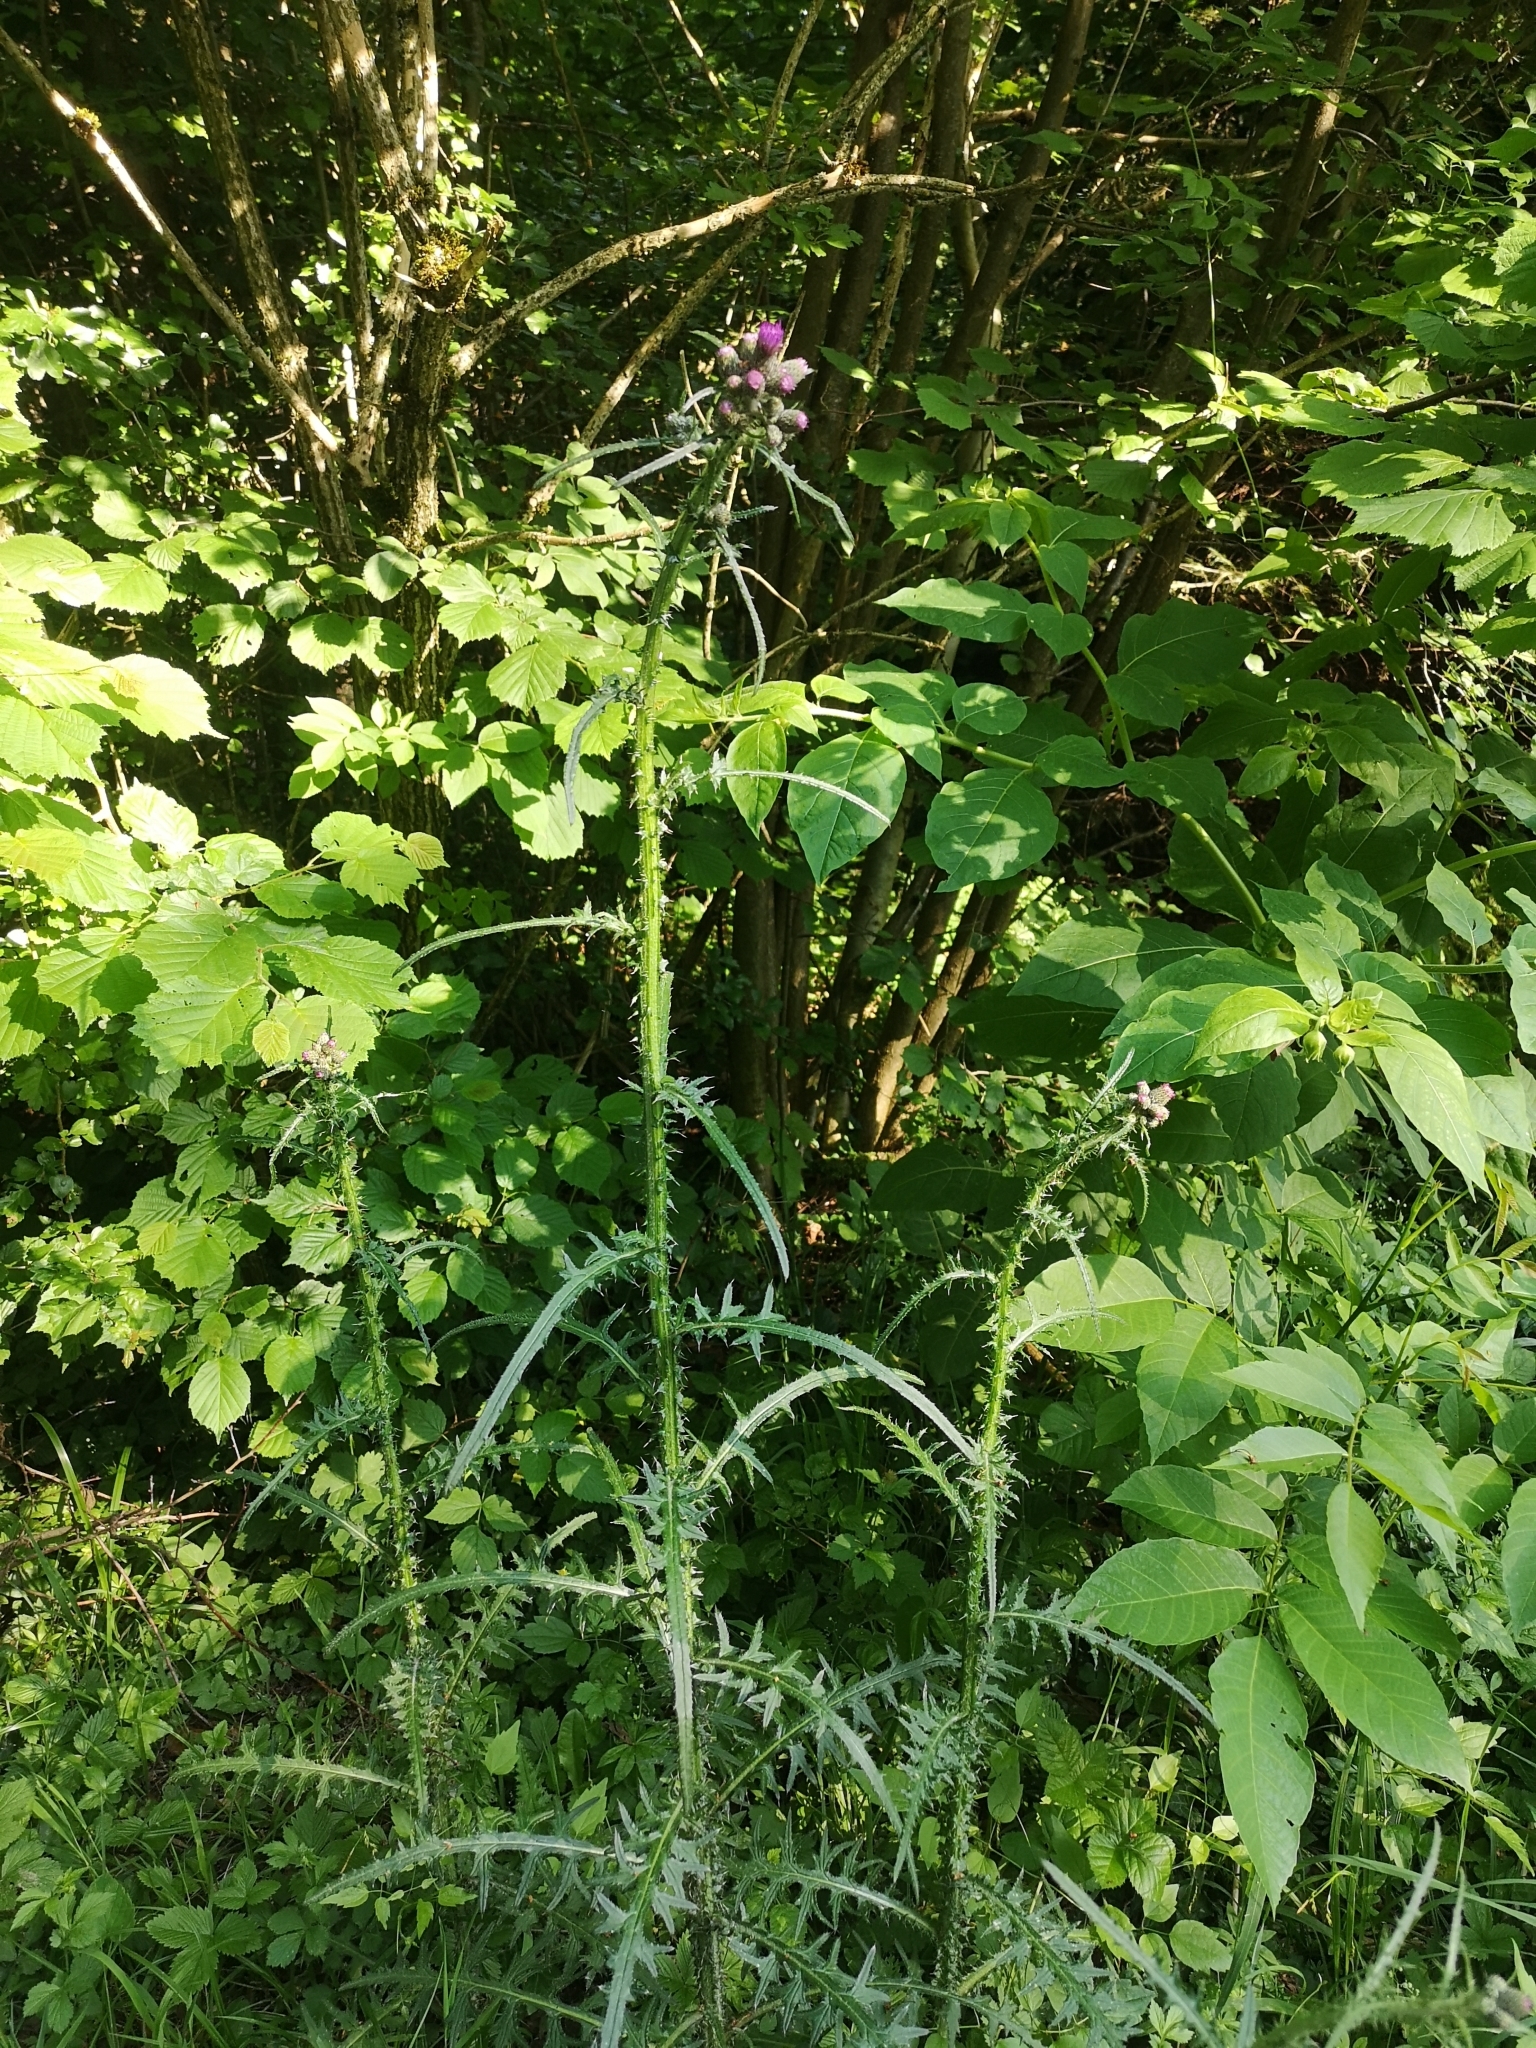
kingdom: Plantae
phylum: Tracheophyta
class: Magnoliopsida
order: Asterales
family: Asteraceae
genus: Cirsium
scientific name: Cirsium palustre
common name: Marsh thistle
